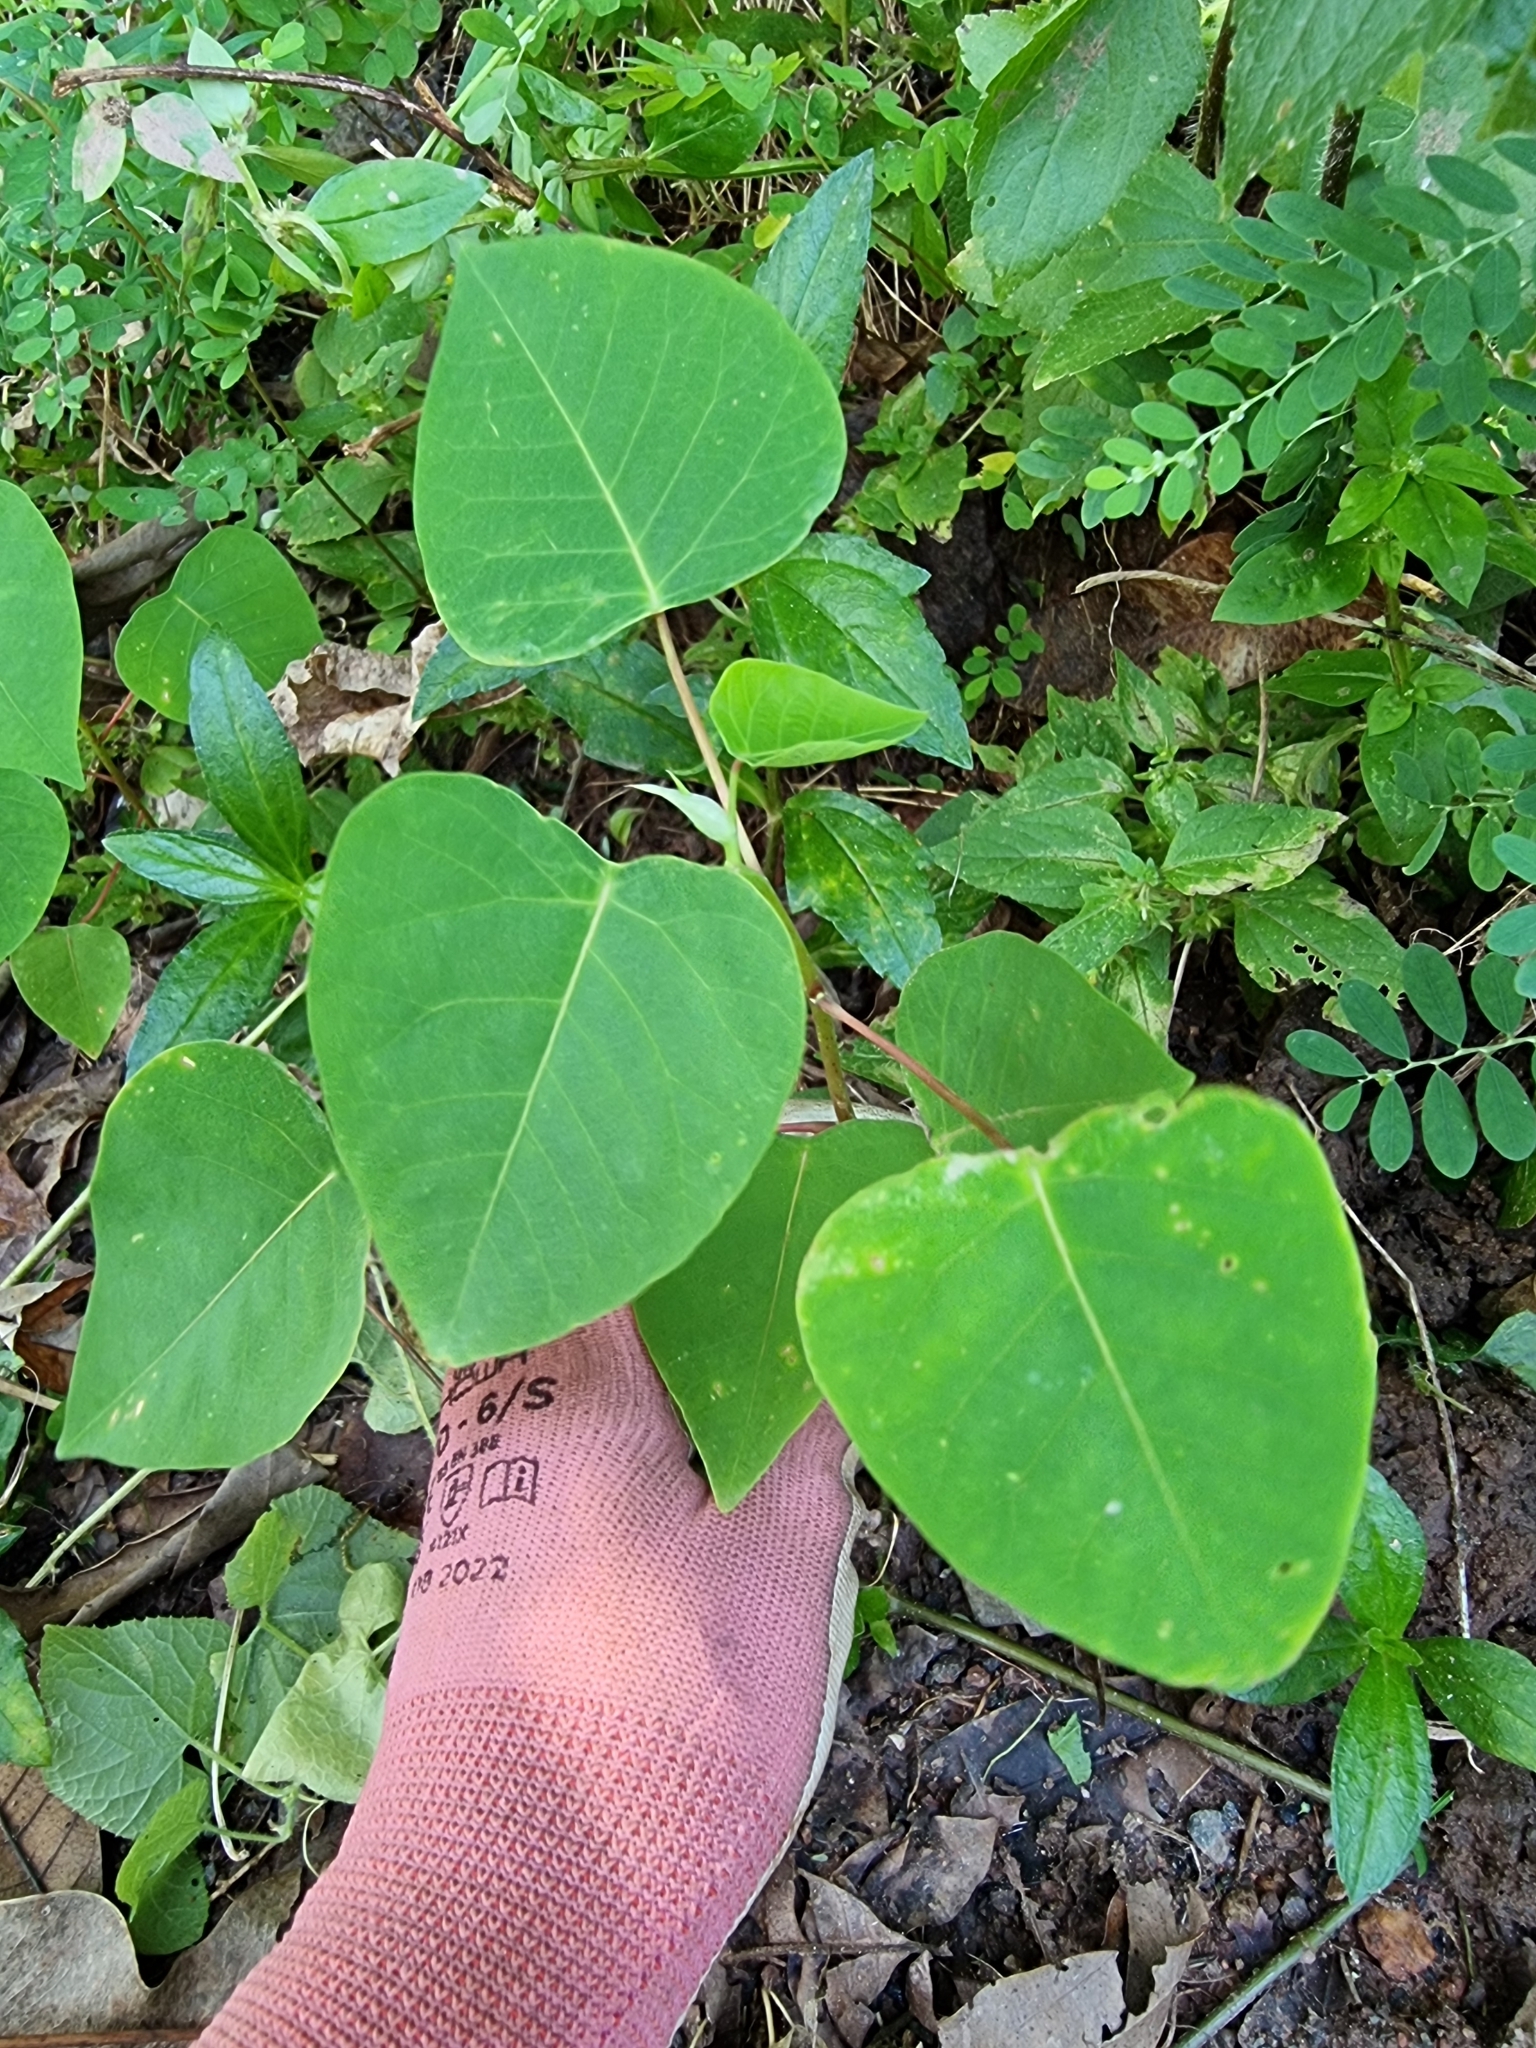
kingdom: Plantae
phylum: Tracheophyta
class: Magnoliopsida
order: Malpighiales
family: Euphorbiaceae
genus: Homalanthus
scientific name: Homalanthus novoguineensis
